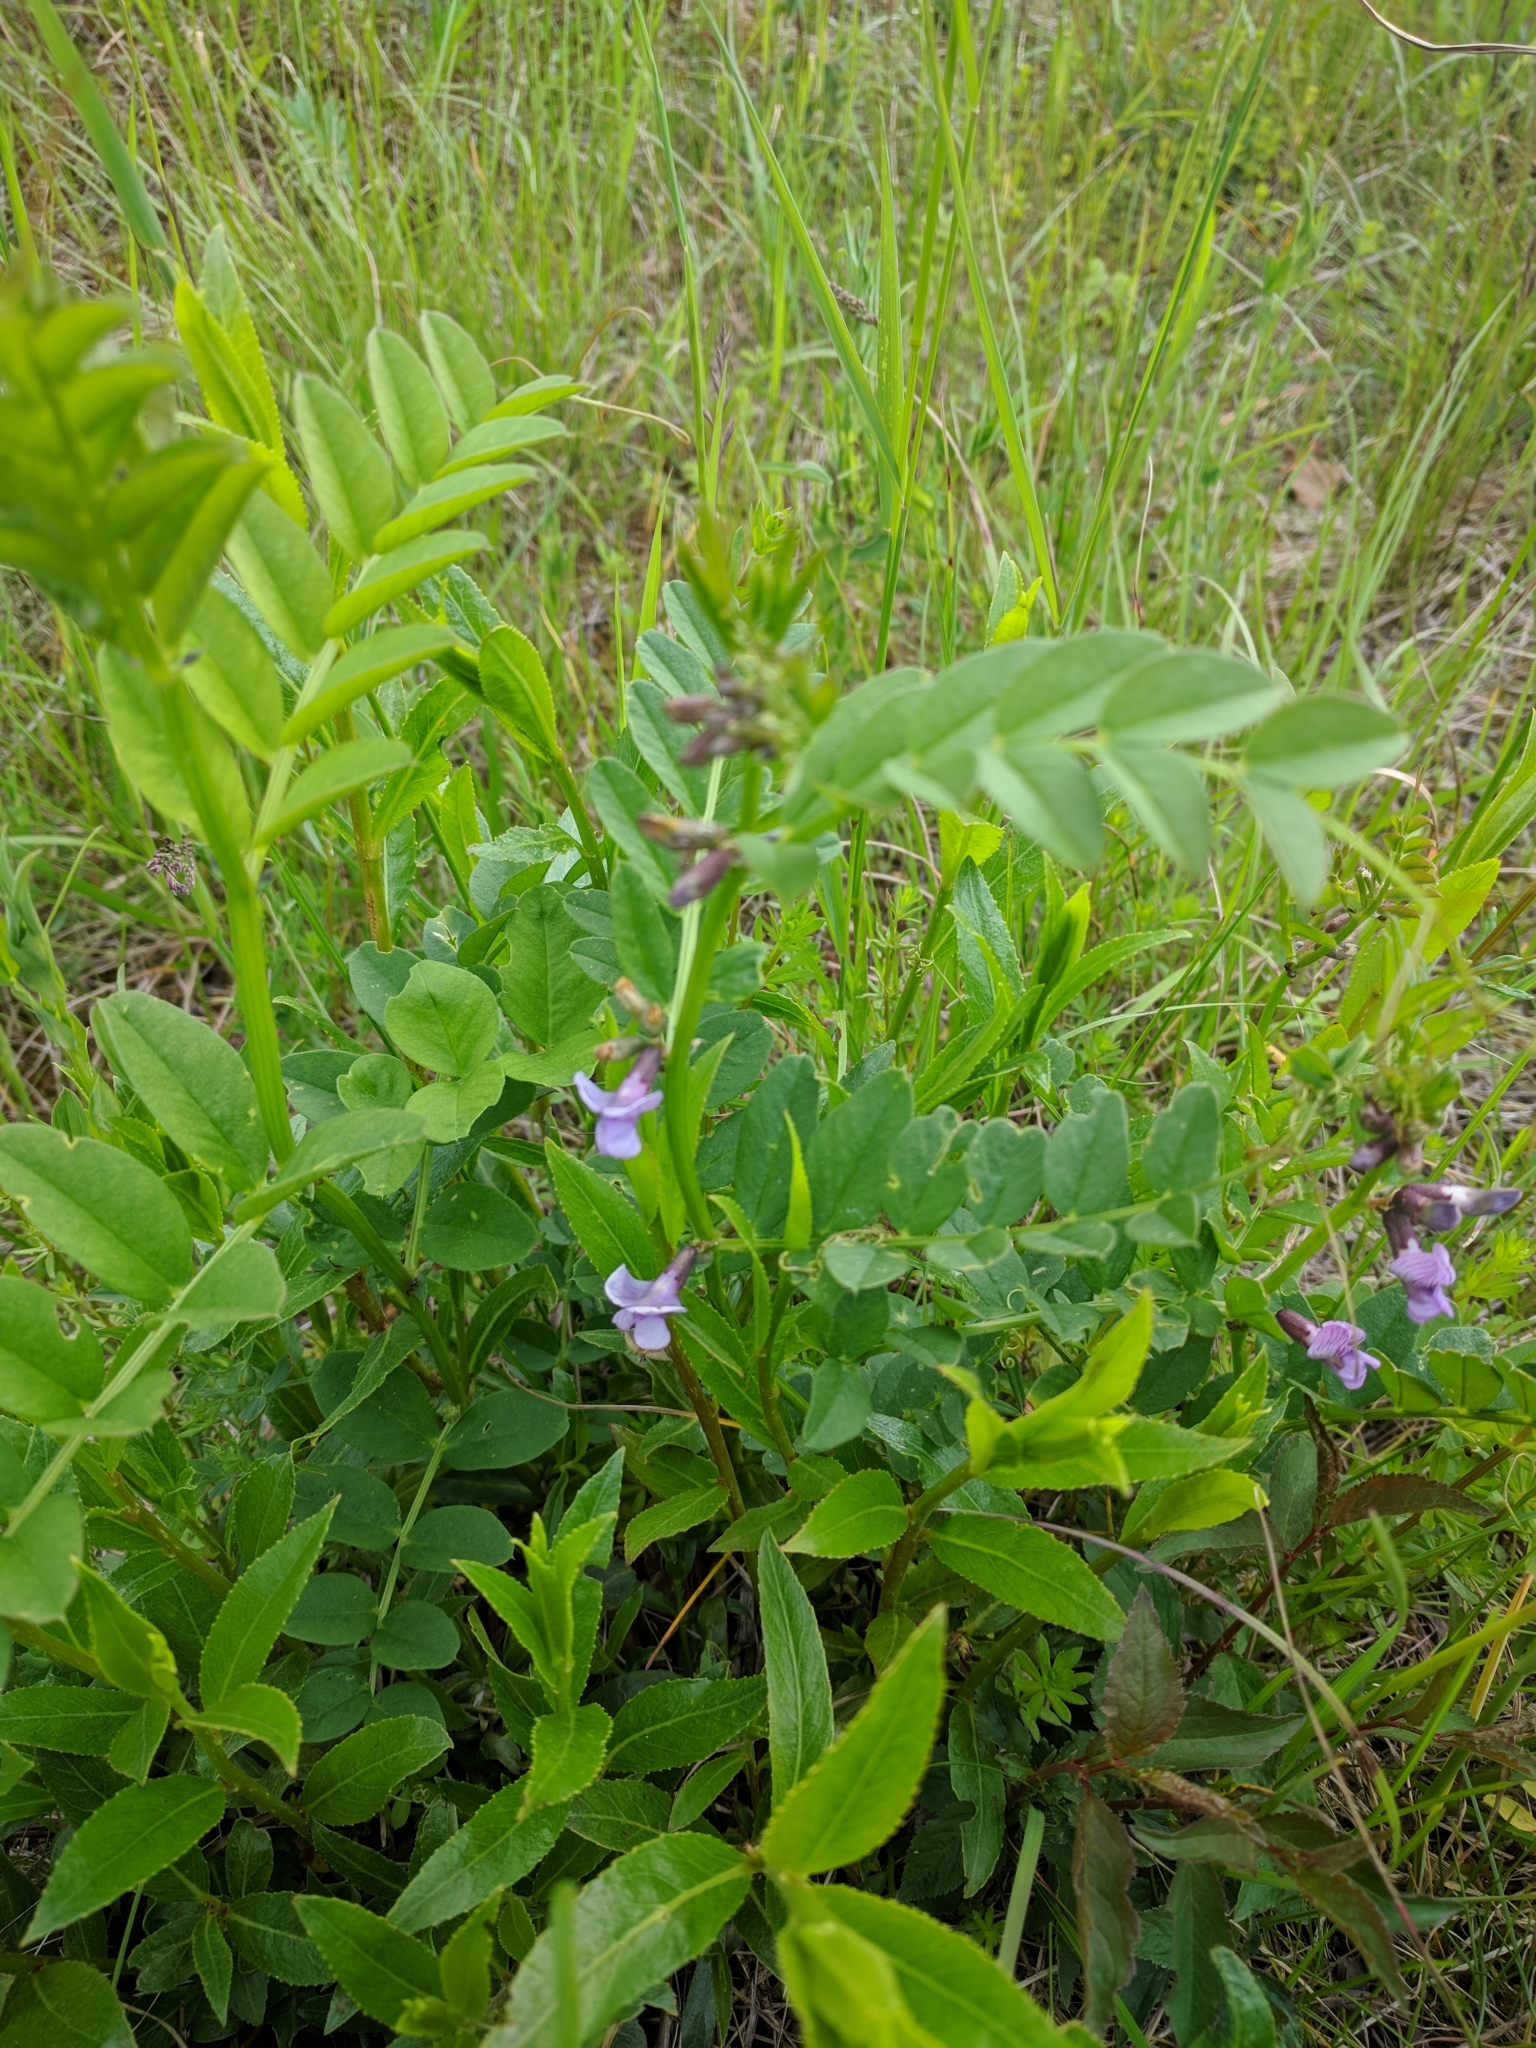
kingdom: Plantae
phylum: Tracheophyta
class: Magnoliopsida
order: Fabales
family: Fabaceae
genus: Vicia
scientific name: Vicia sepium
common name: Bush vetch
